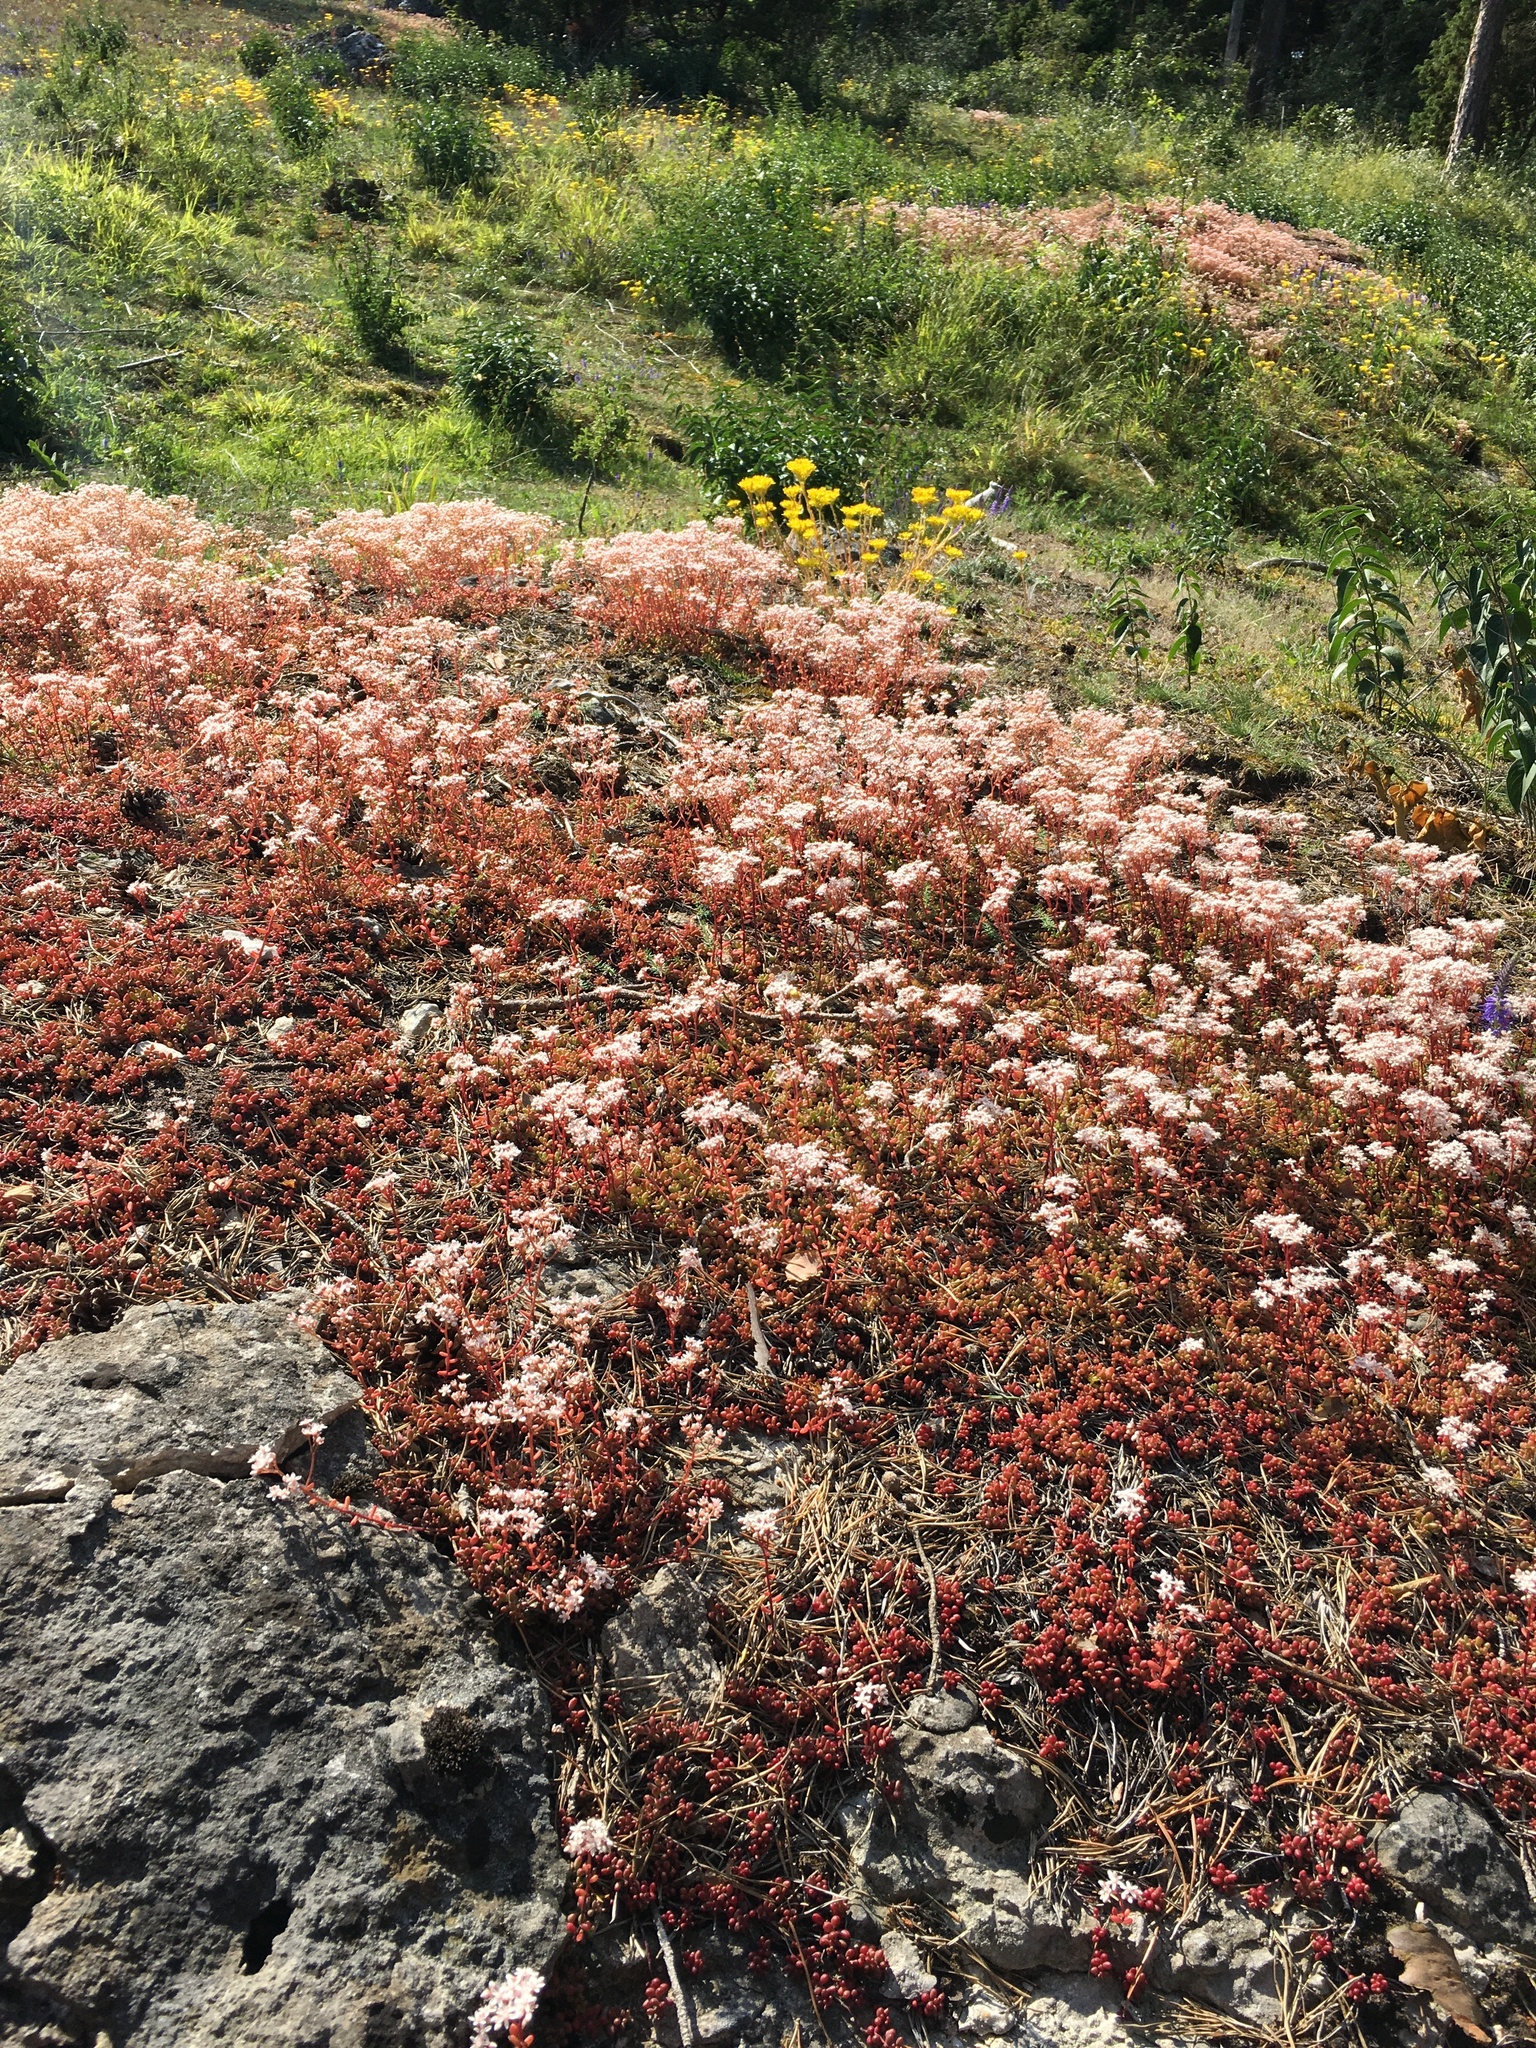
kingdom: Plantae
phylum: Tracheophyta
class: Magnoliopsida
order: Saxifragales
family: Crassulaceae
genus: Sedum
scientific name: Sedum album
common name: White stonecrop
